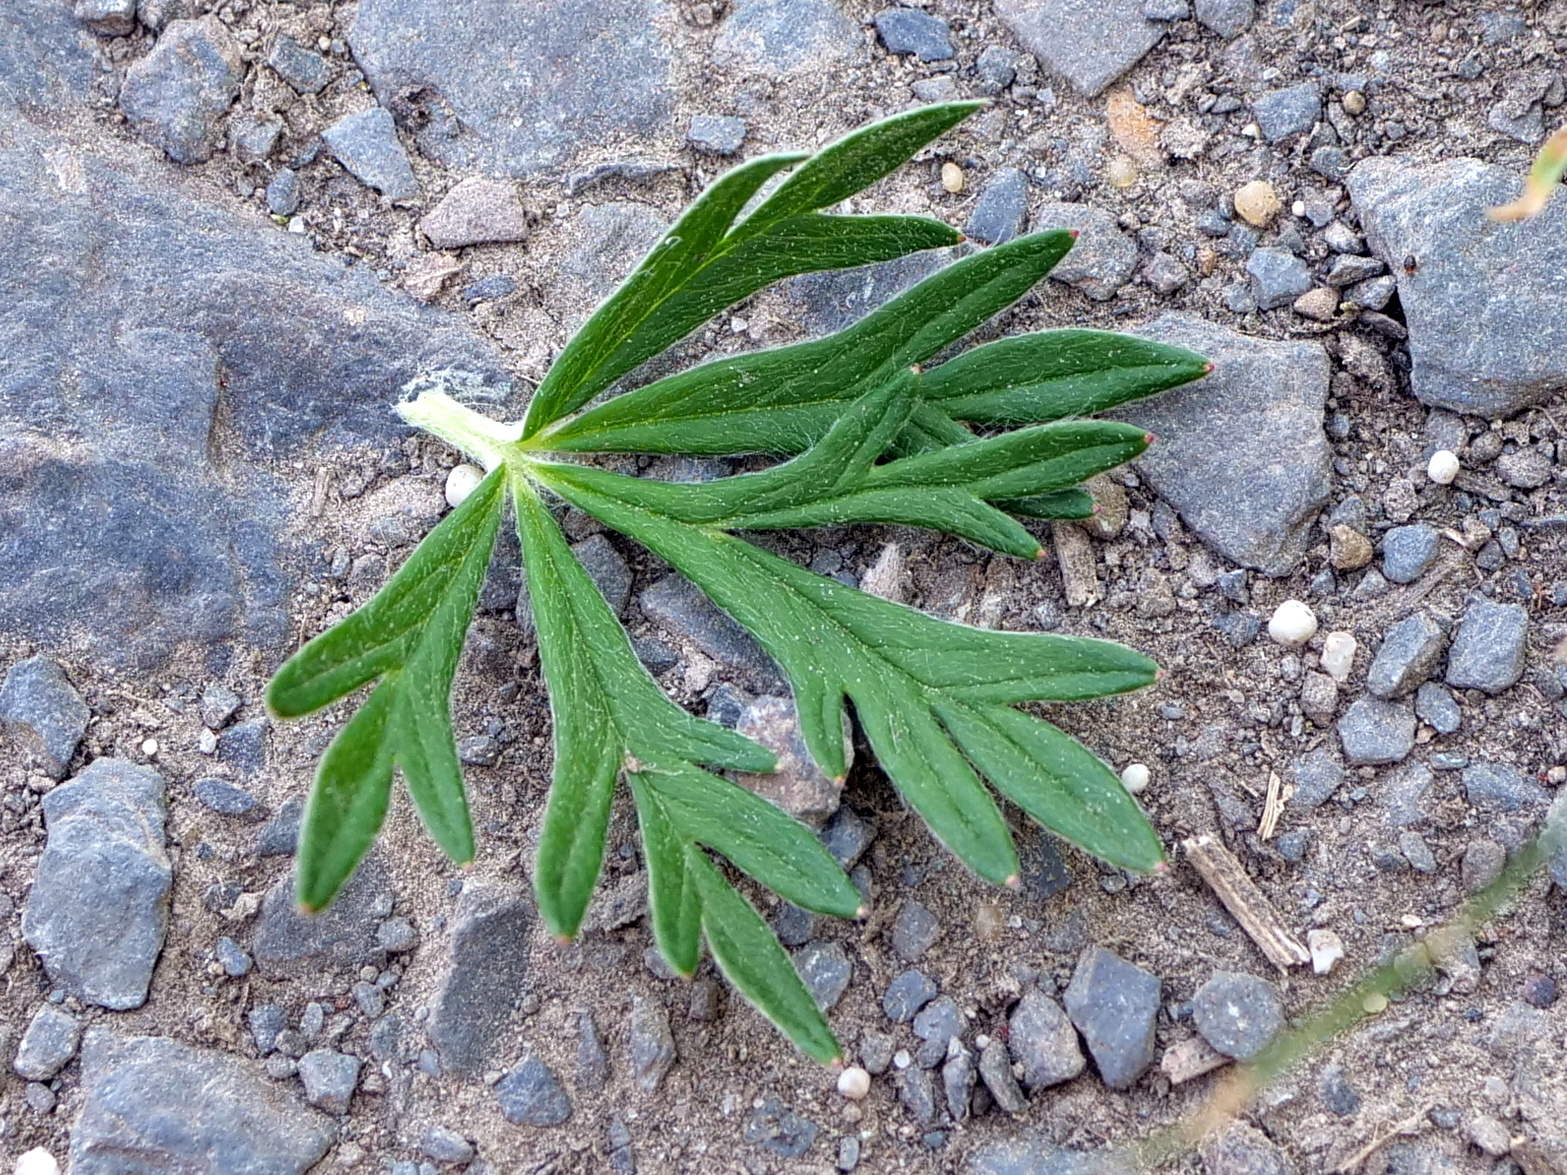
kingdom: Plantae
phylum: Tracheophyta
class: Magnoliopsida
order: Rosales
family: Rosaceae
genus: Potentilla
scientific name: Potentilla argentea
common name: Hoary cinquefoil
